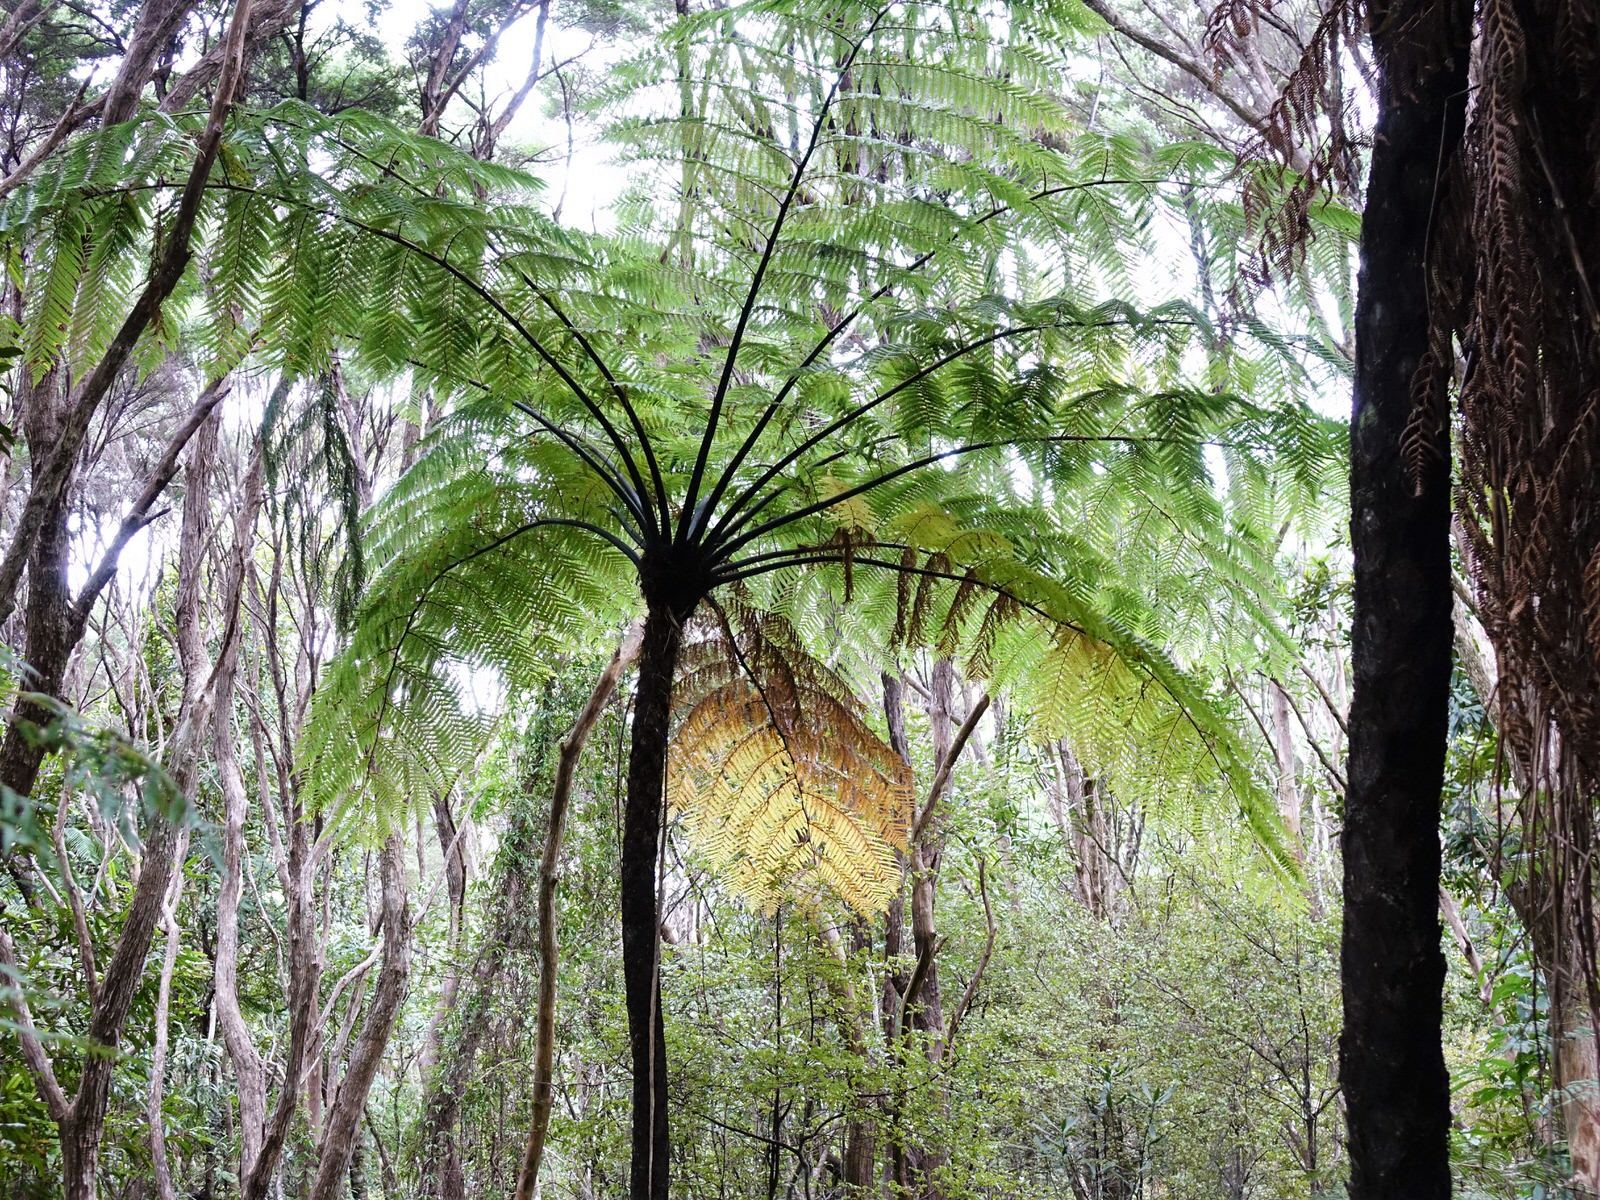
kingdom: Plantae
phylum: Tracheophyta
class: Polypodiopsida
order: Cyatheales
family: Cyatheaceae
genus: Sphaeropteris
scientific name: Sphaeropteris medullaris
